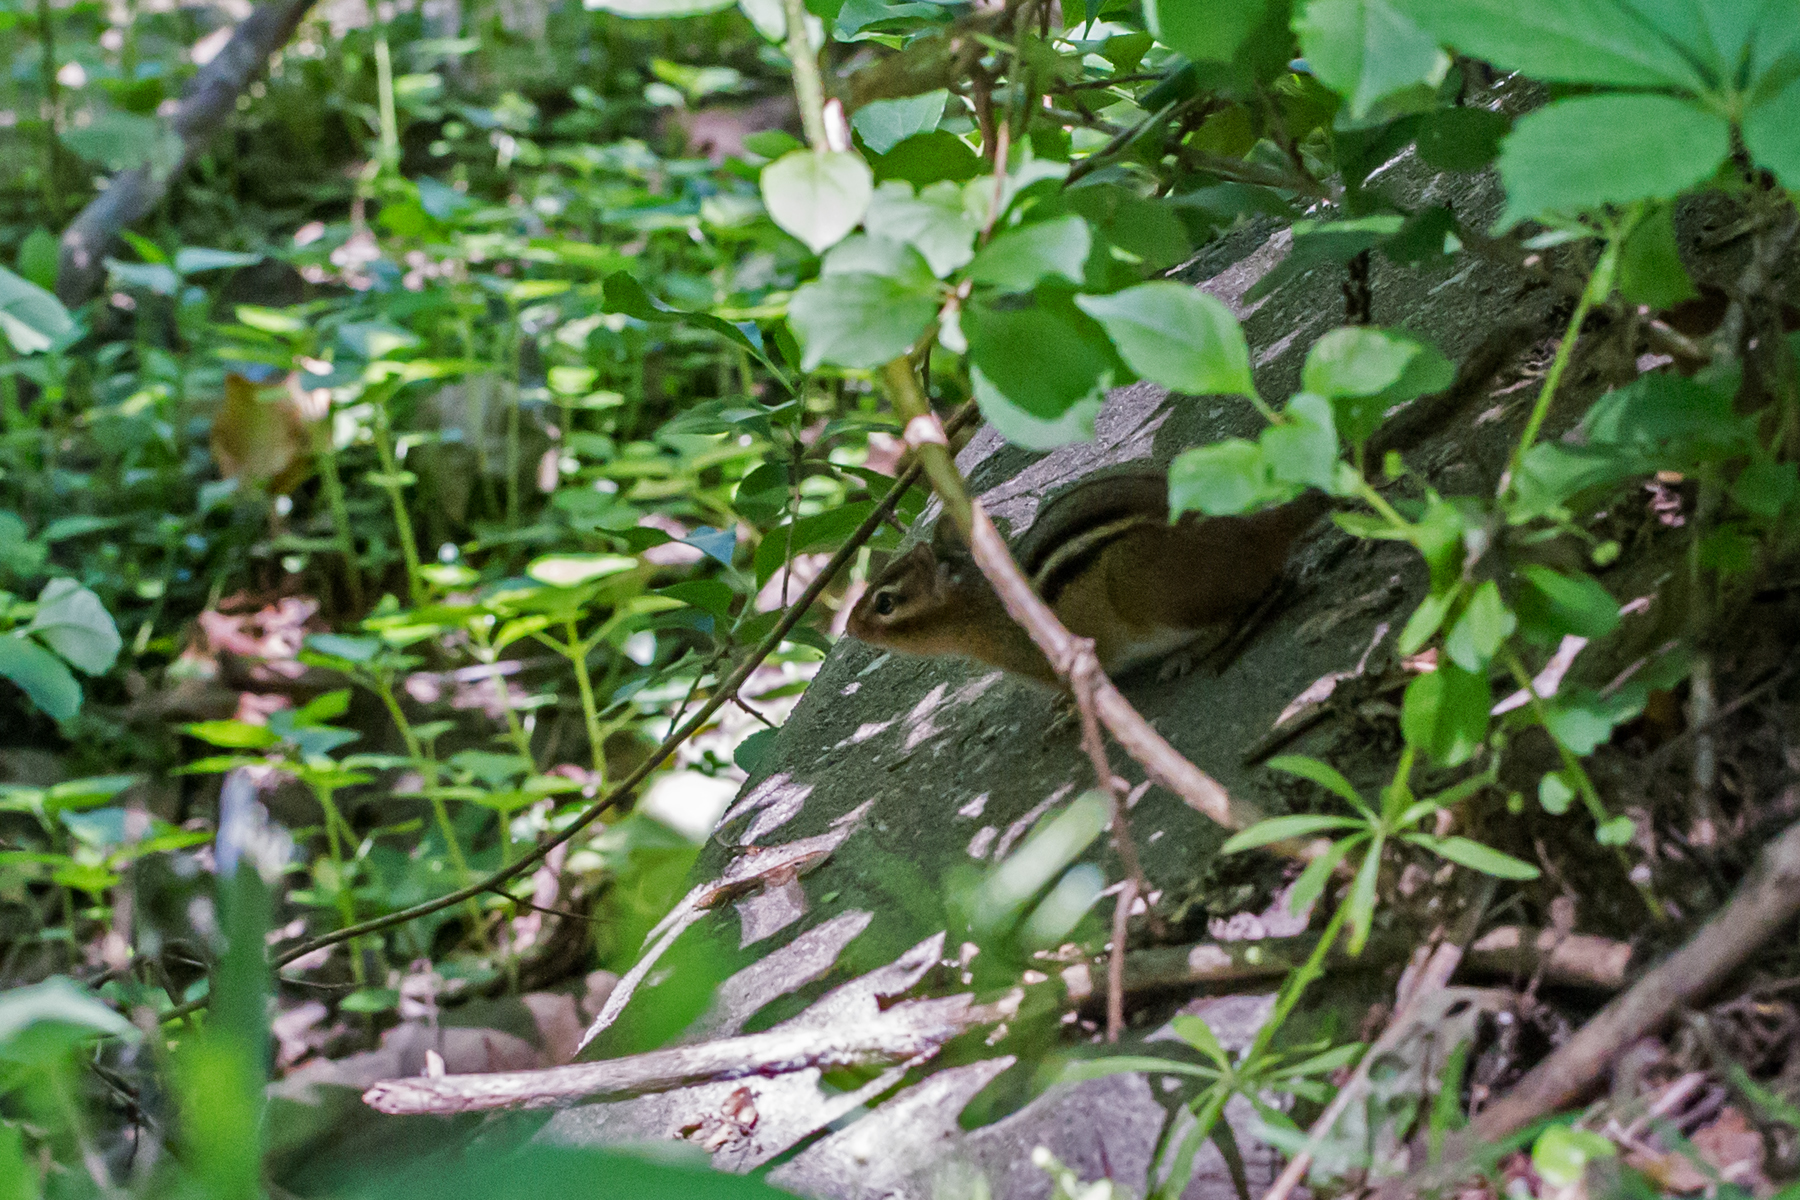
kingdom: Animalia
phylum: Chordata
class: Mammalia
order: Rodentia
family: Sciuridae
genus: Tamias
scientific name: Tamias striatus
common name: Eastern chipmunk
